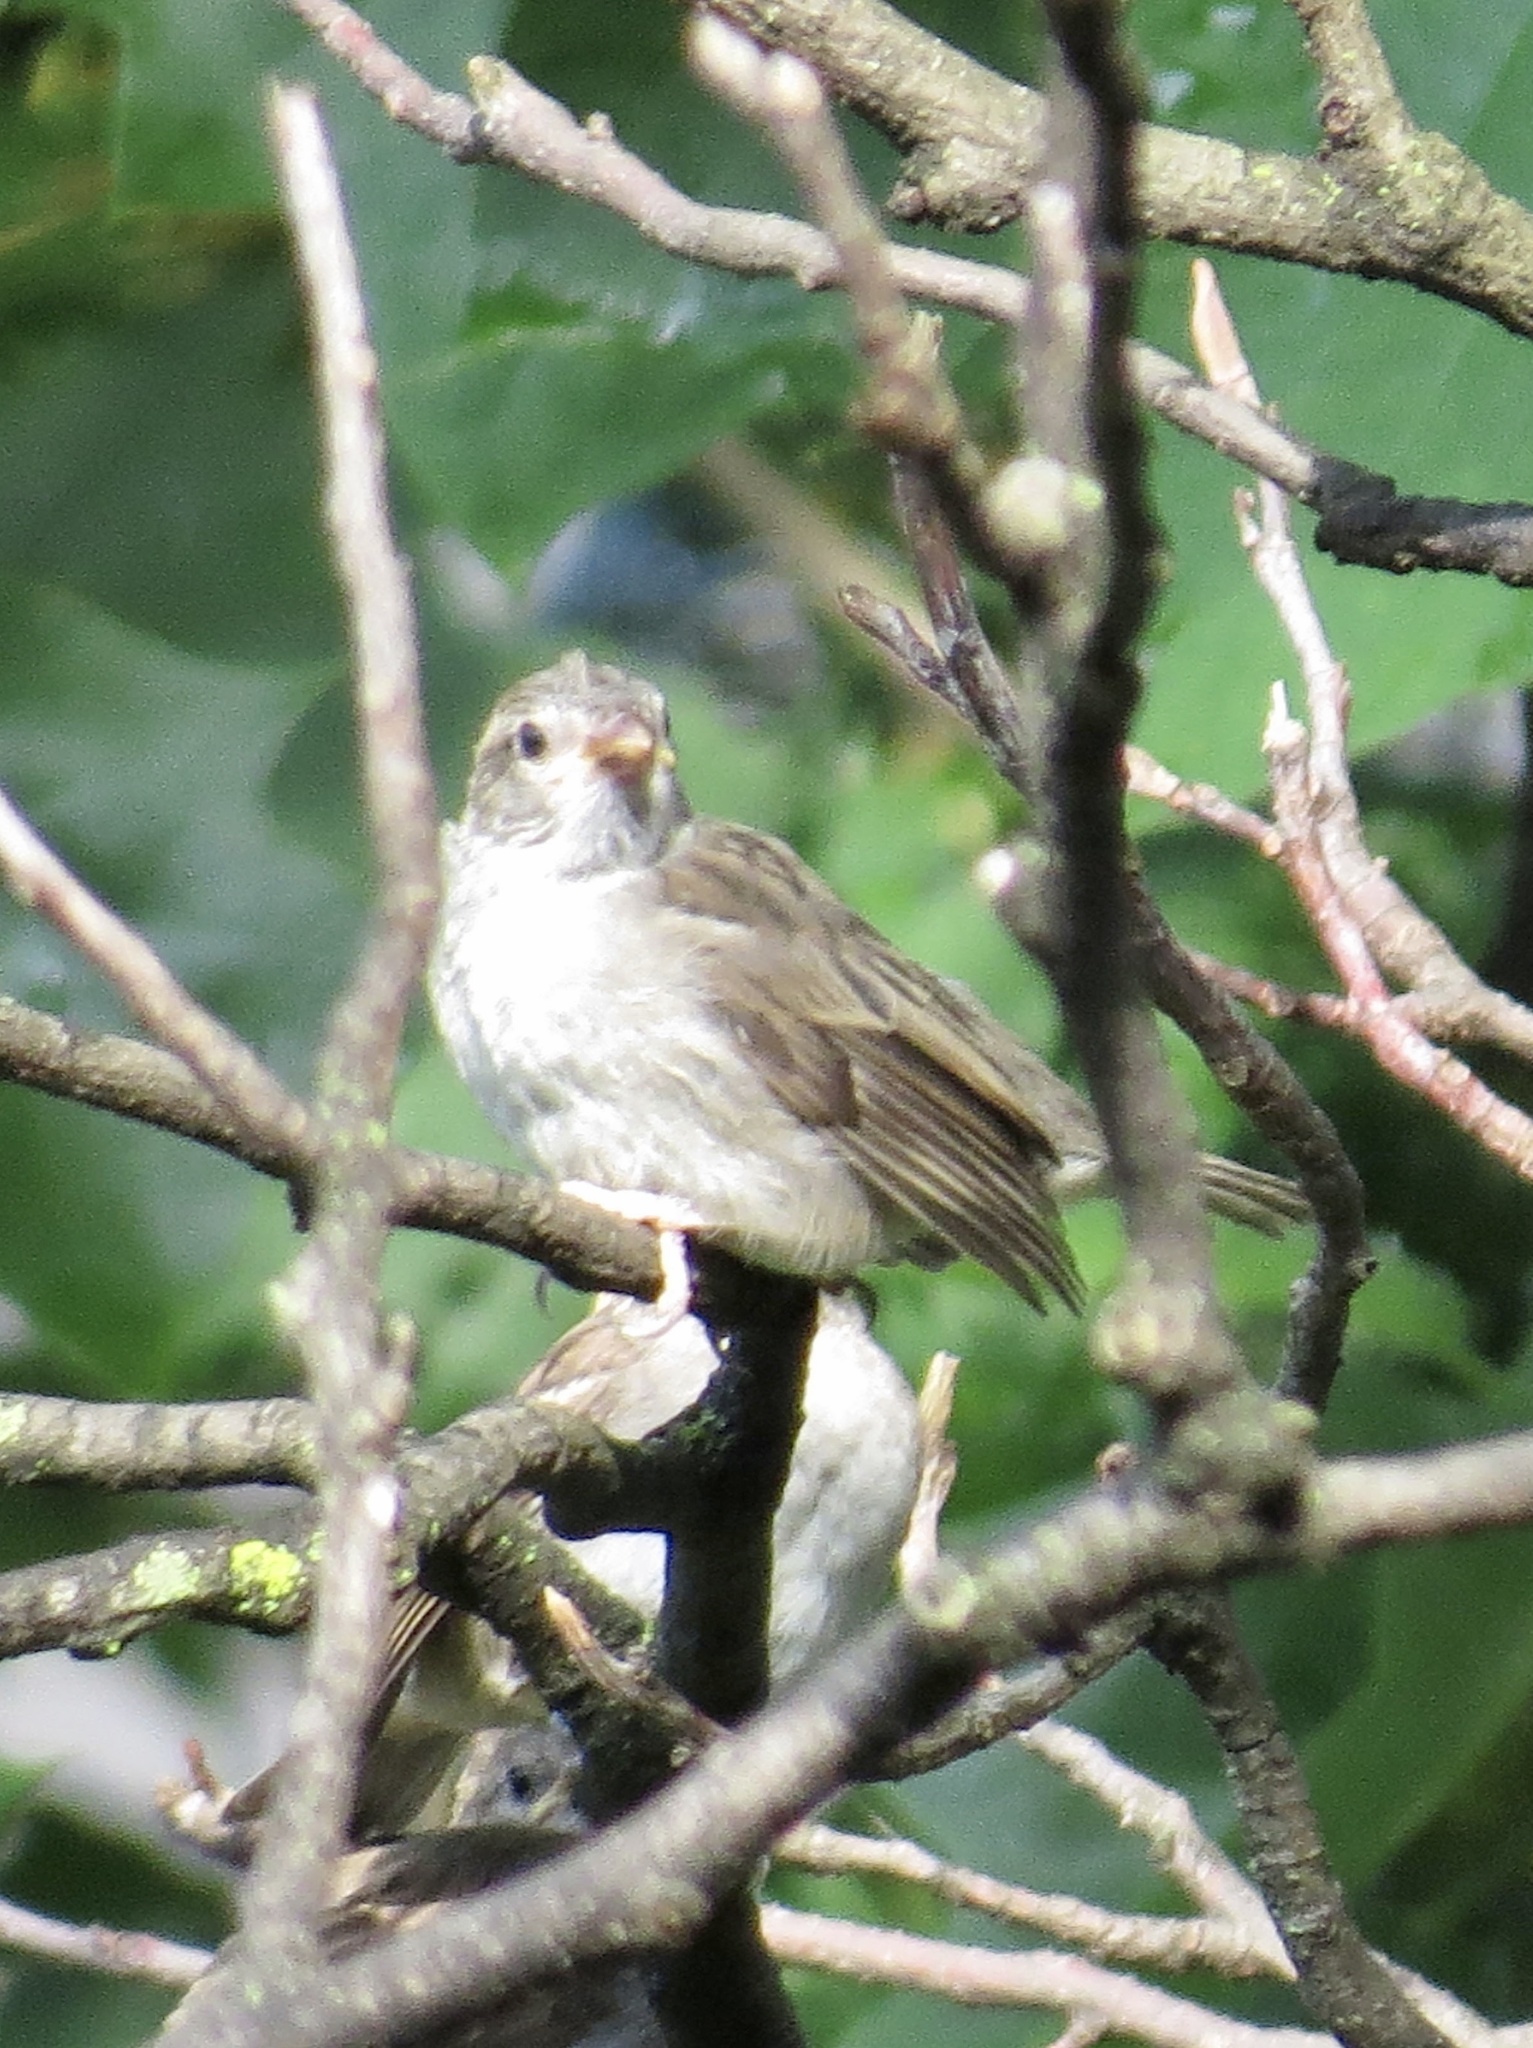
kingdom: Animalia
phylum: Chordata
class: Aves
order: Passeriformes
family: Passeridae
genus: Passer
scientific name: Passer domesticus
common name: House sparrow
